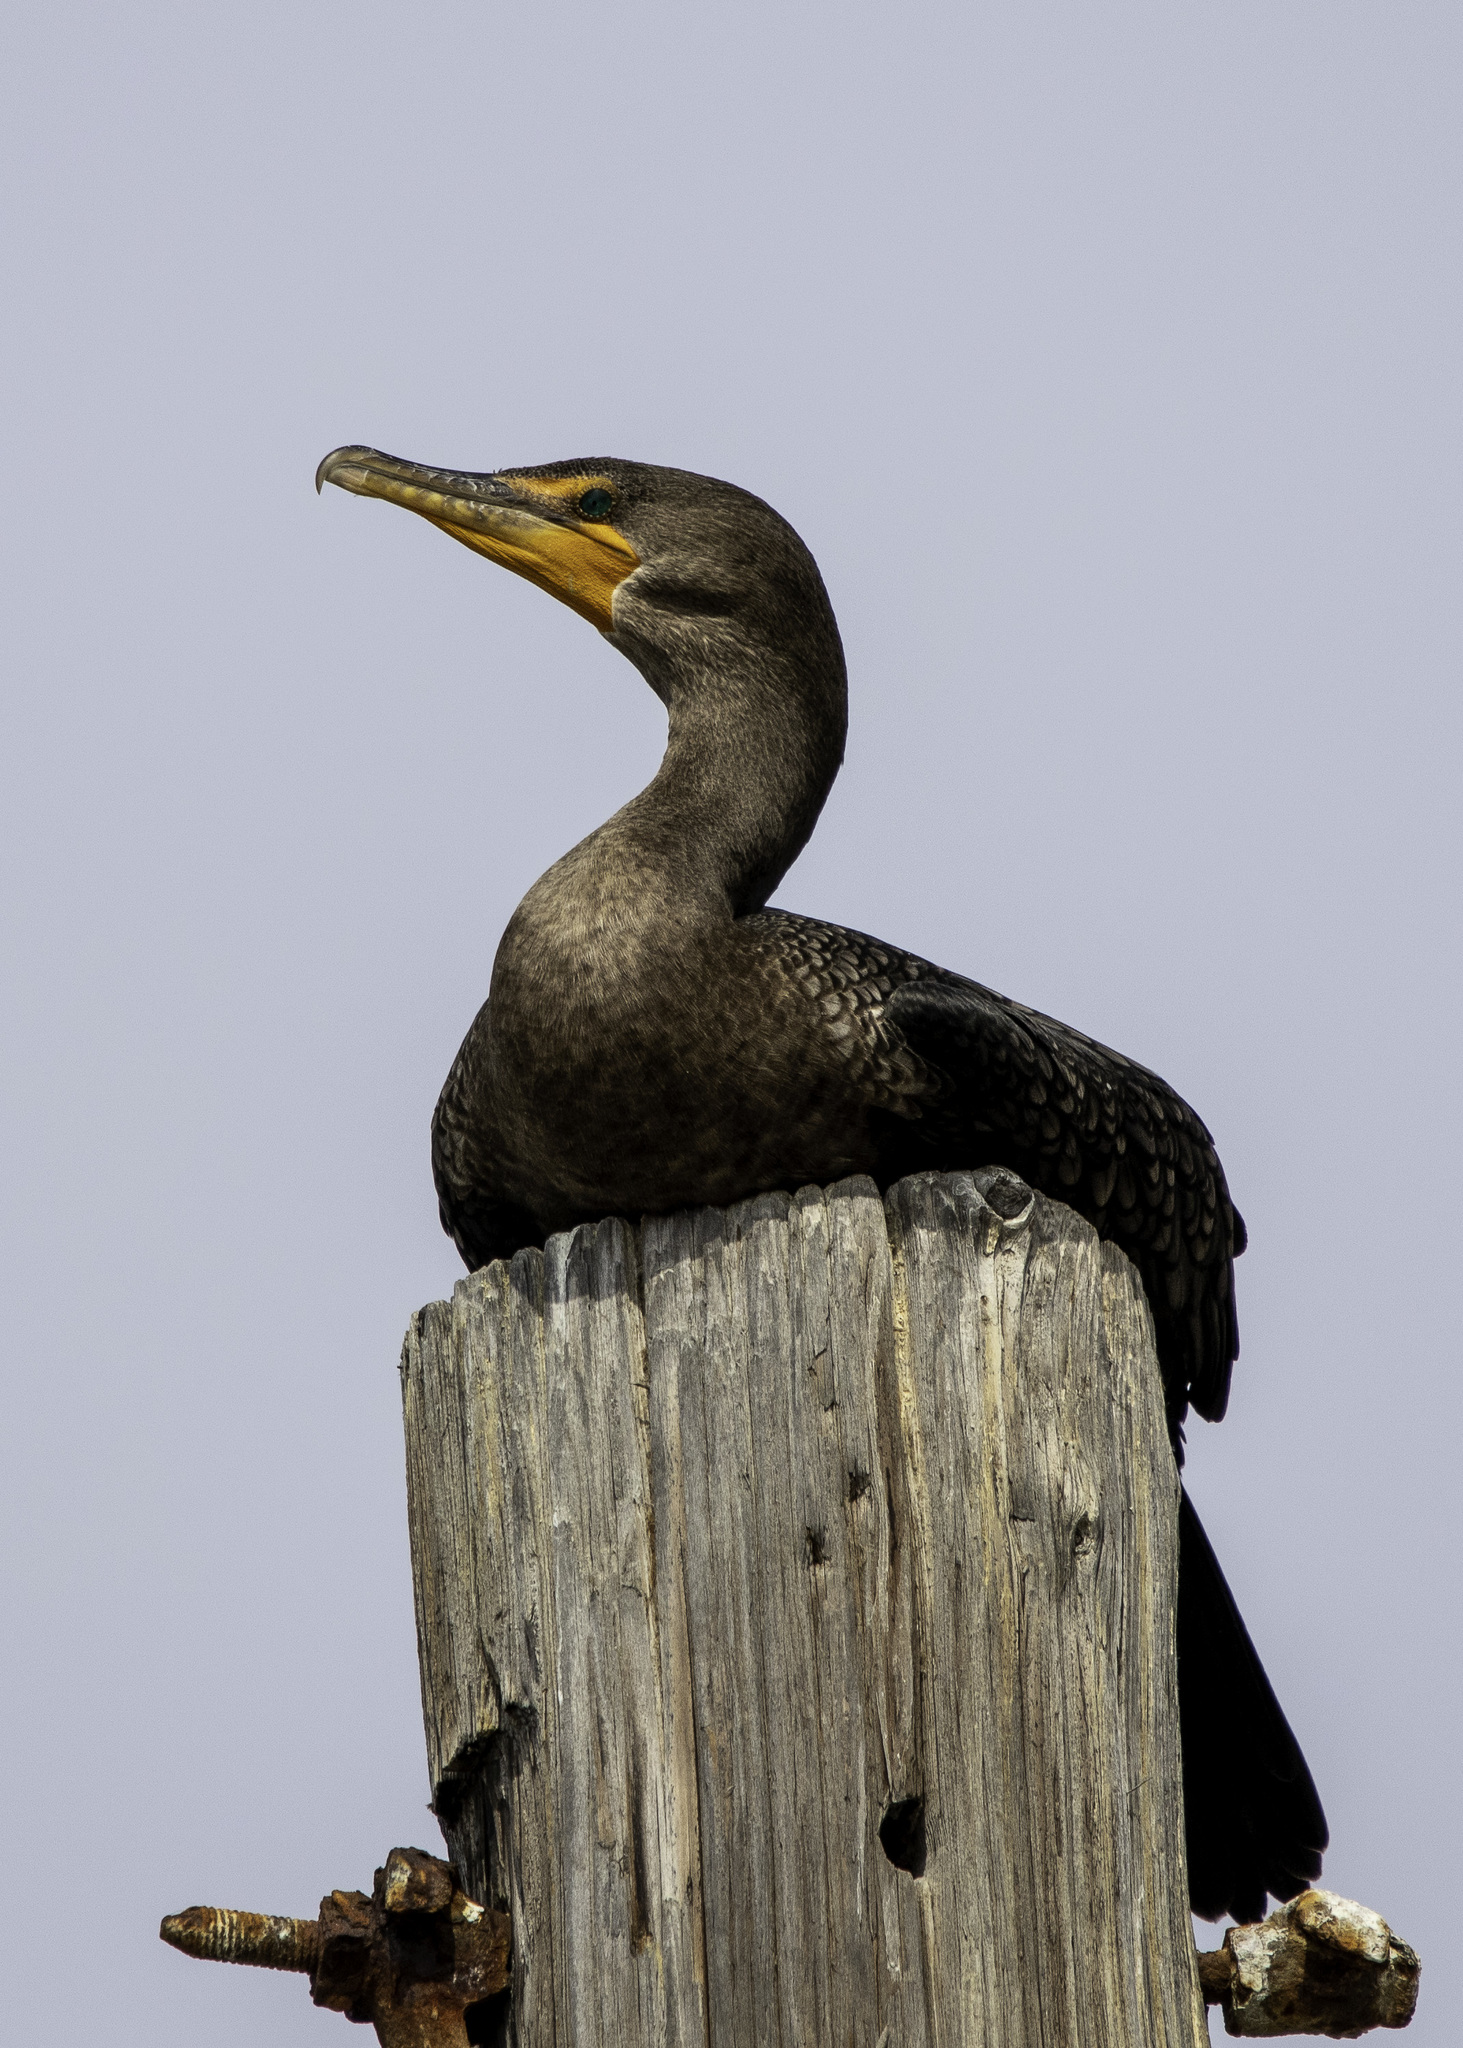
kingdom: Animalia
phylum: Chordata
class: Aves
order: Suliformes
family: Phalacrocoracidae
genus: Phalacrocorax
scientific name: Phalacrocorax auritus
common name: Double-crested cormorant
